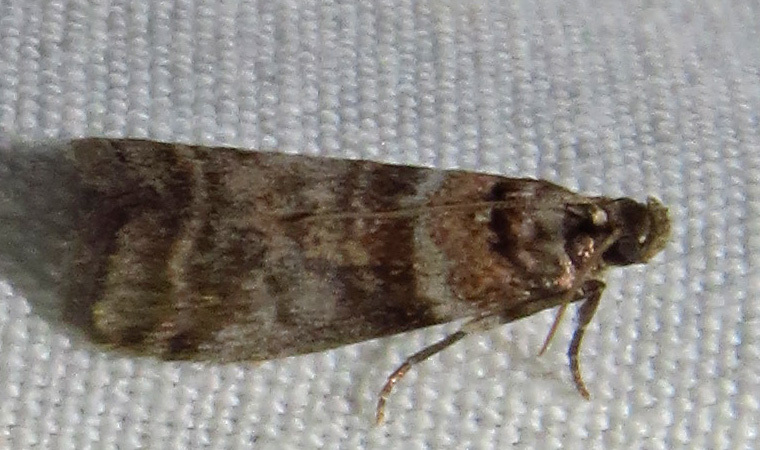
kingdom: Animalia
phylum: Arthropoda
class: Insecta
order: Lepidoptera
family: Pyralidae
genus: Sciota
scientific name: Sciota uvinella
